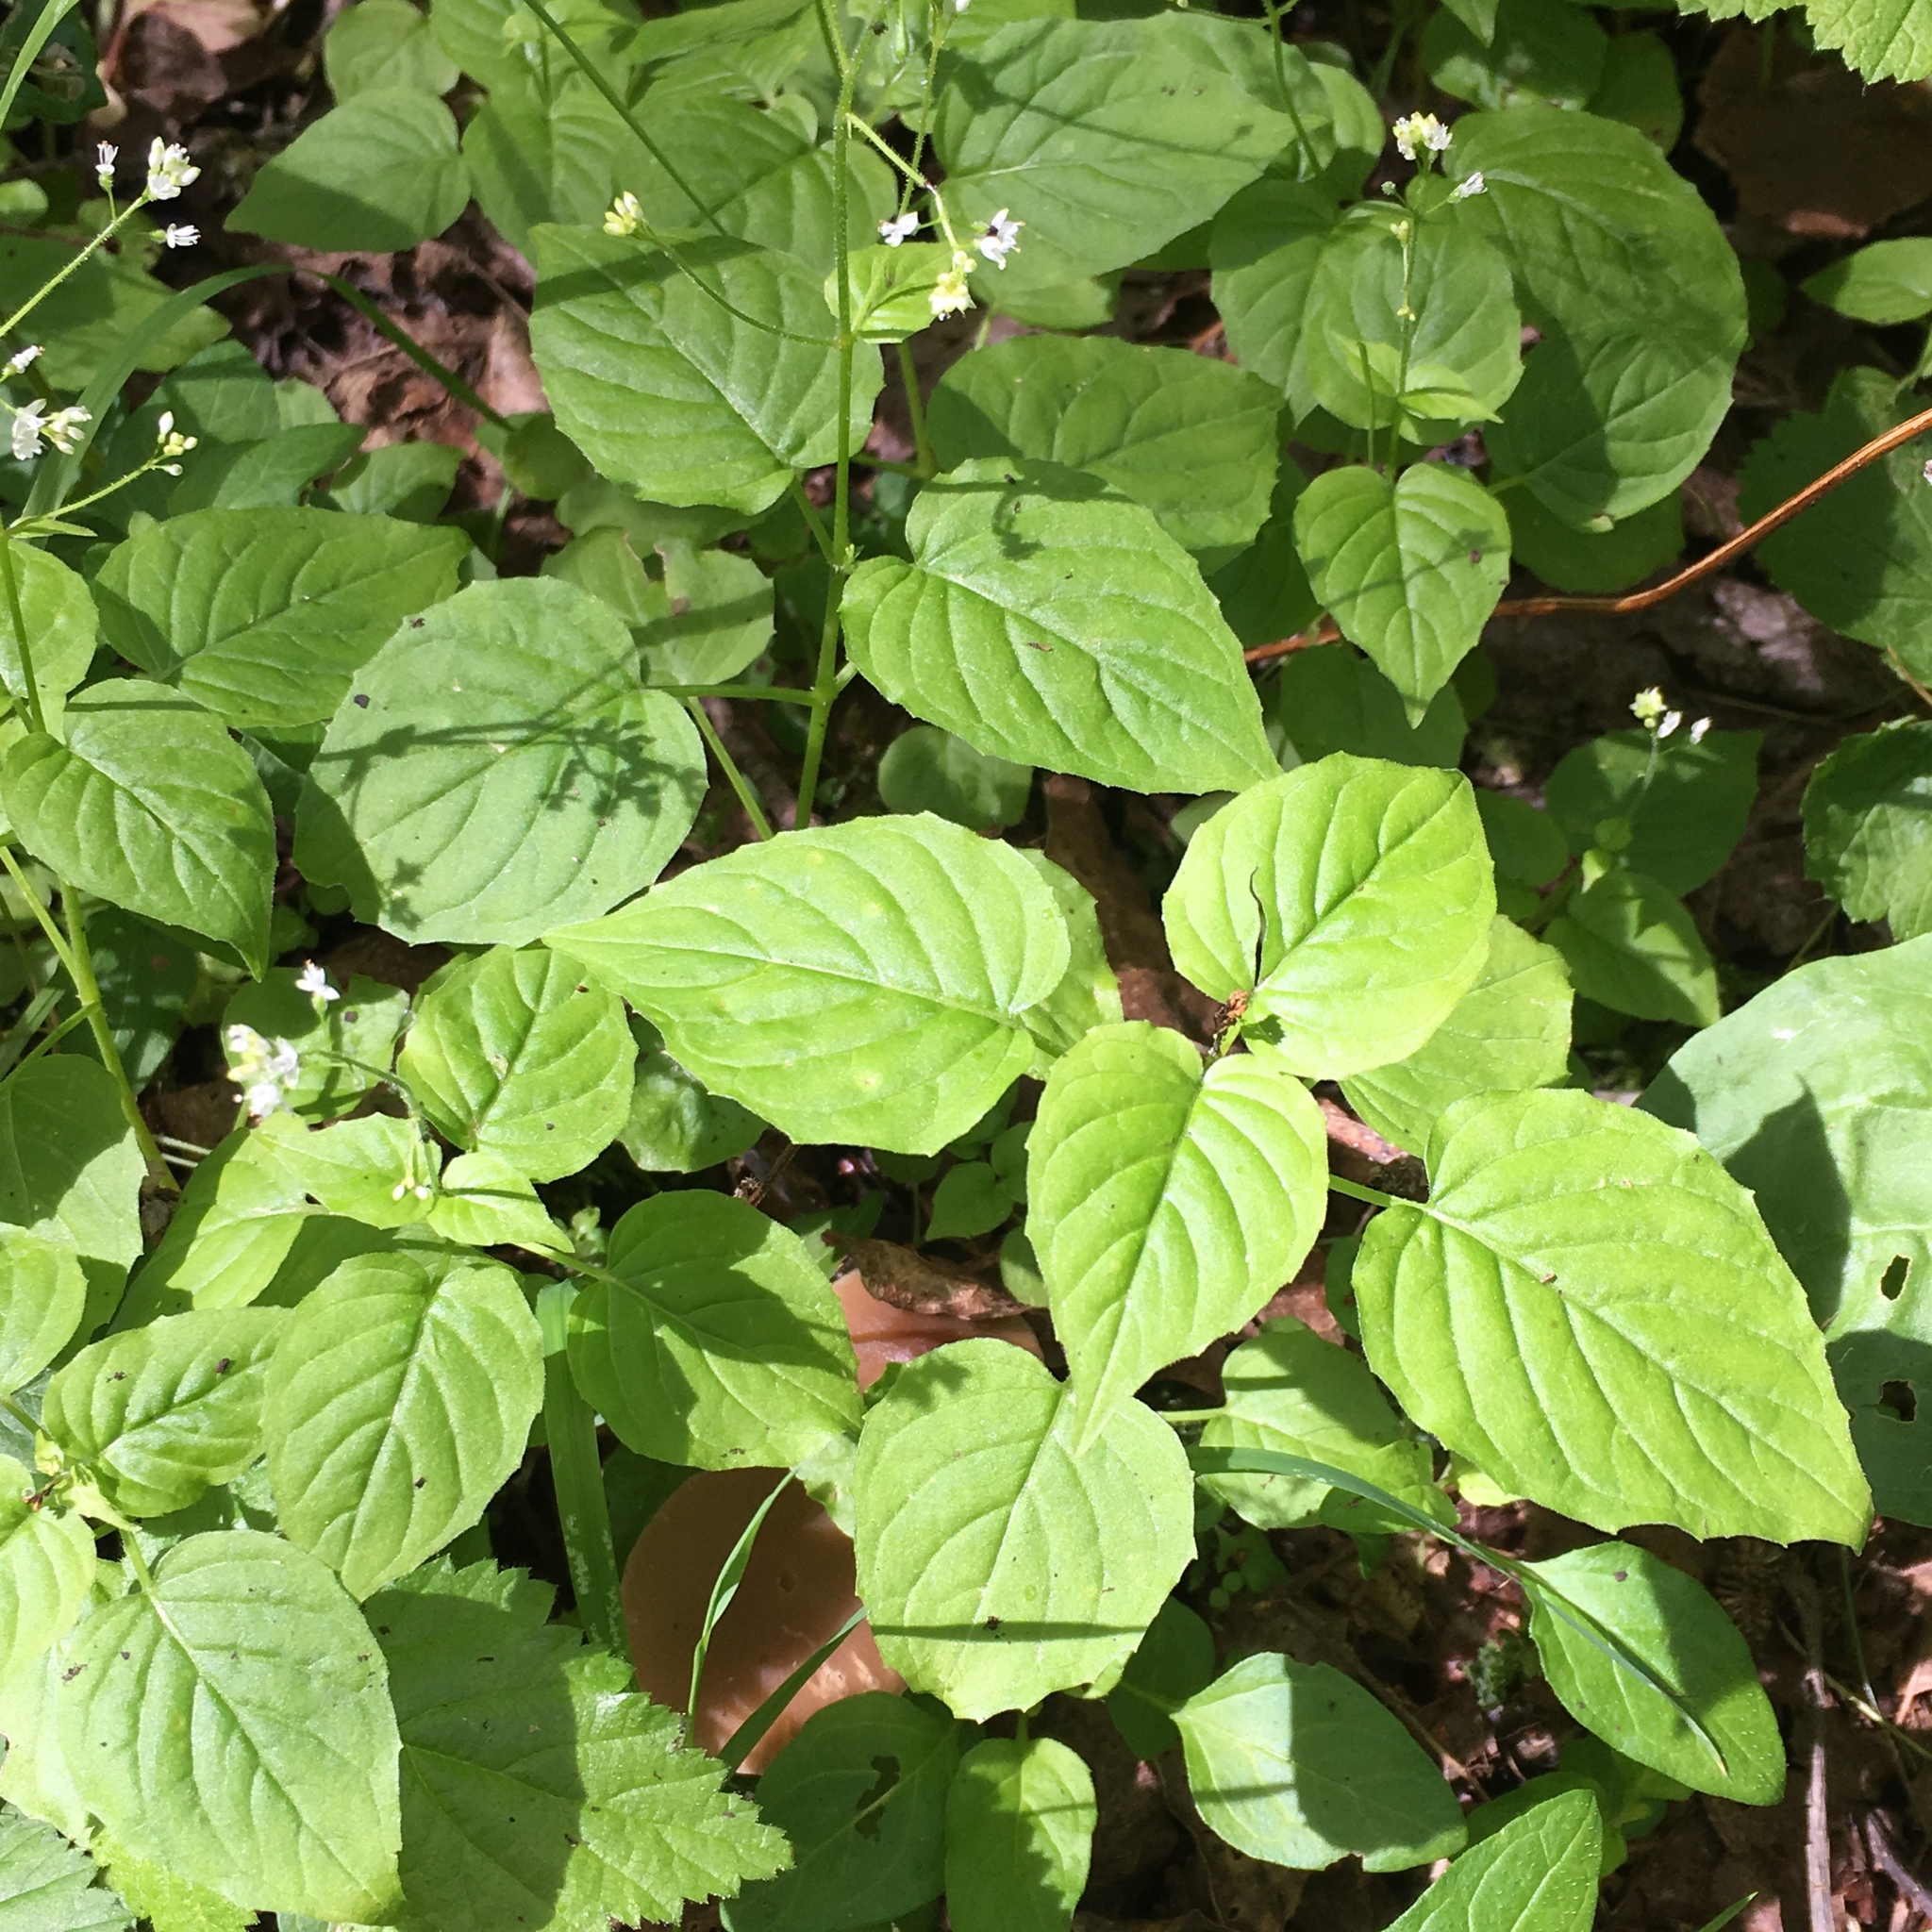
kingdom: Plantae
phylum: Tracheophyta
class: Magnoliopsida
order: Myrtales
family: Onagraceae
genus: Circaea
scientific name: Circaea alpina
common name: Alpine enchanter's-nightshade
